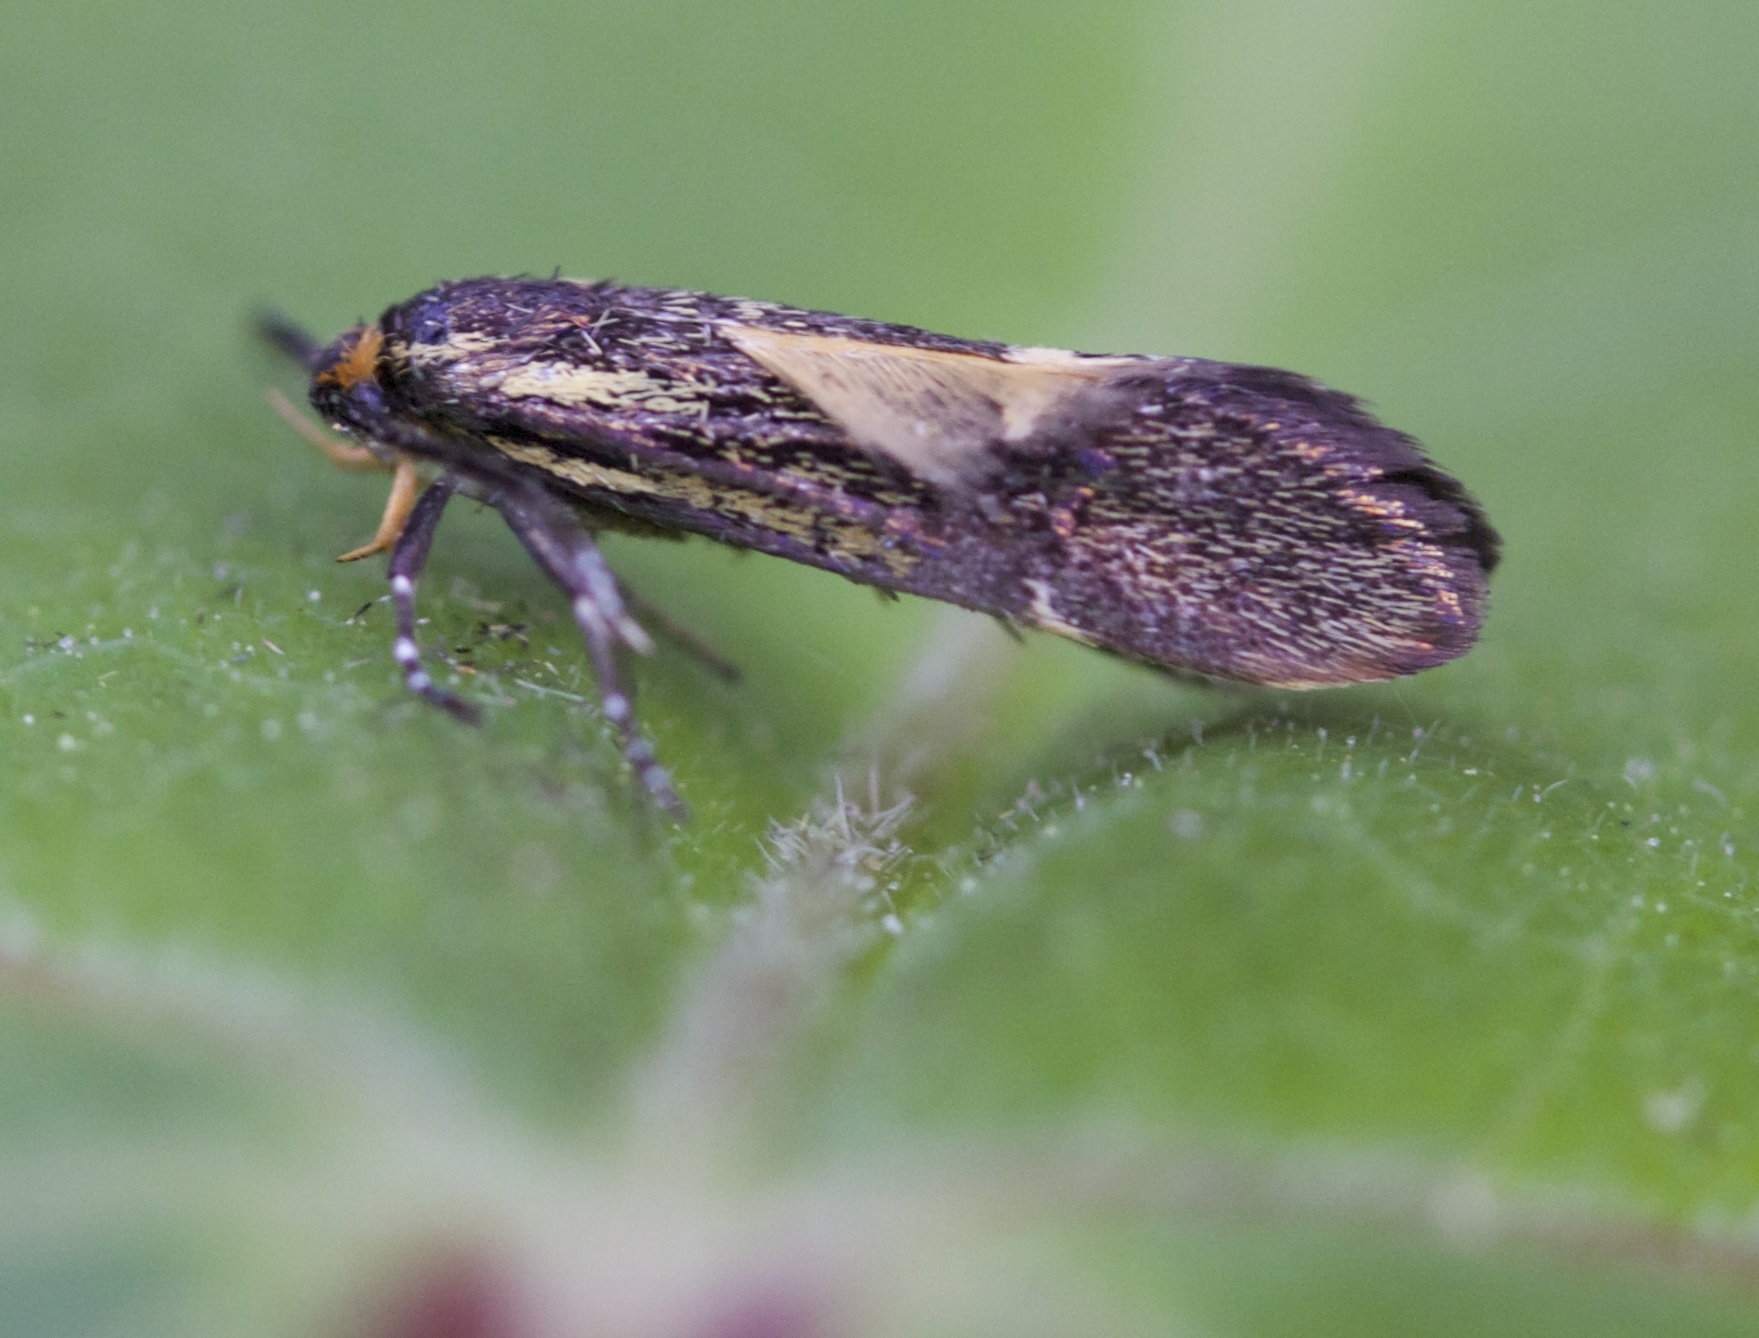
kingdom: Animalia
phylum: Arthropoda
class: Insecta
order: Lepidoptera
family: Oecophoridae
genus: Dafa
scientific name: Dafa Esperia sulphurella
